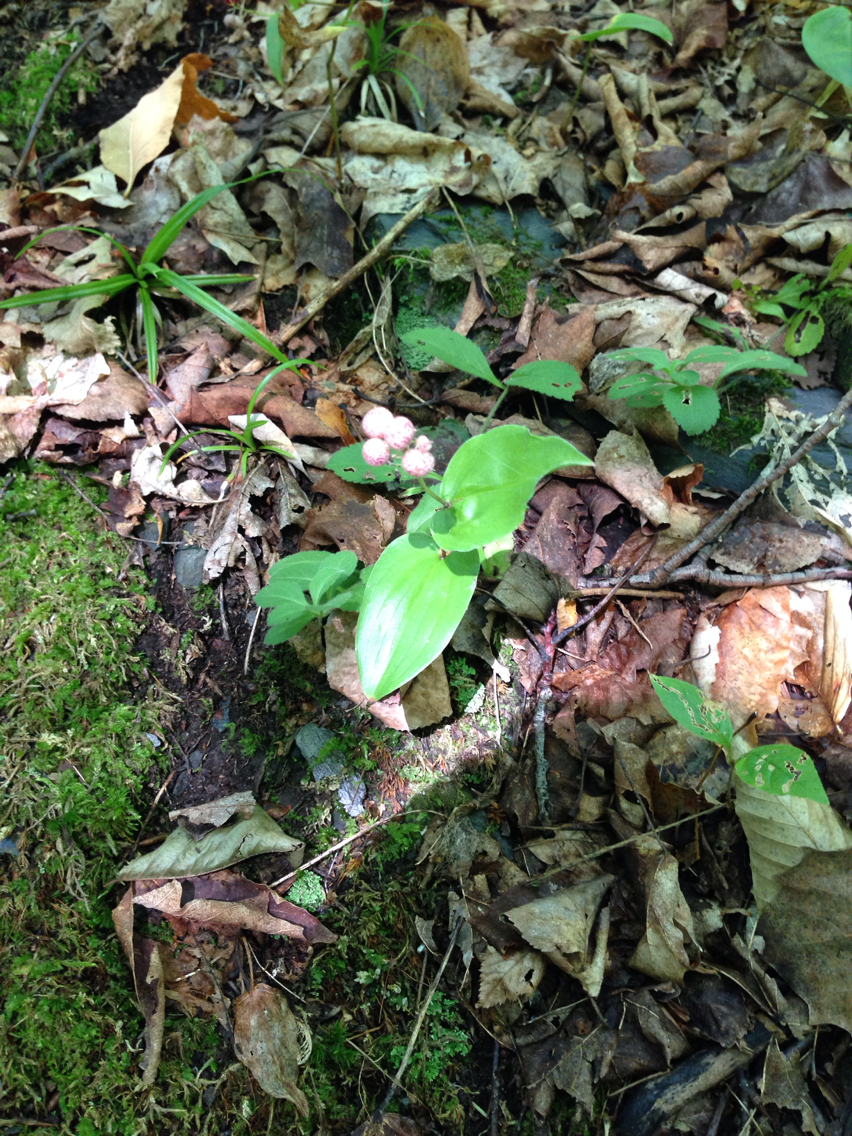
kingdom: Plantae
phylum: Tracheophyta
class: Liliopsida
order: Asparagales
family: Asparagaceae
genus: Maianthemum
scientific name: Maianthemum canadense
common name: False lily-of-the-valley
